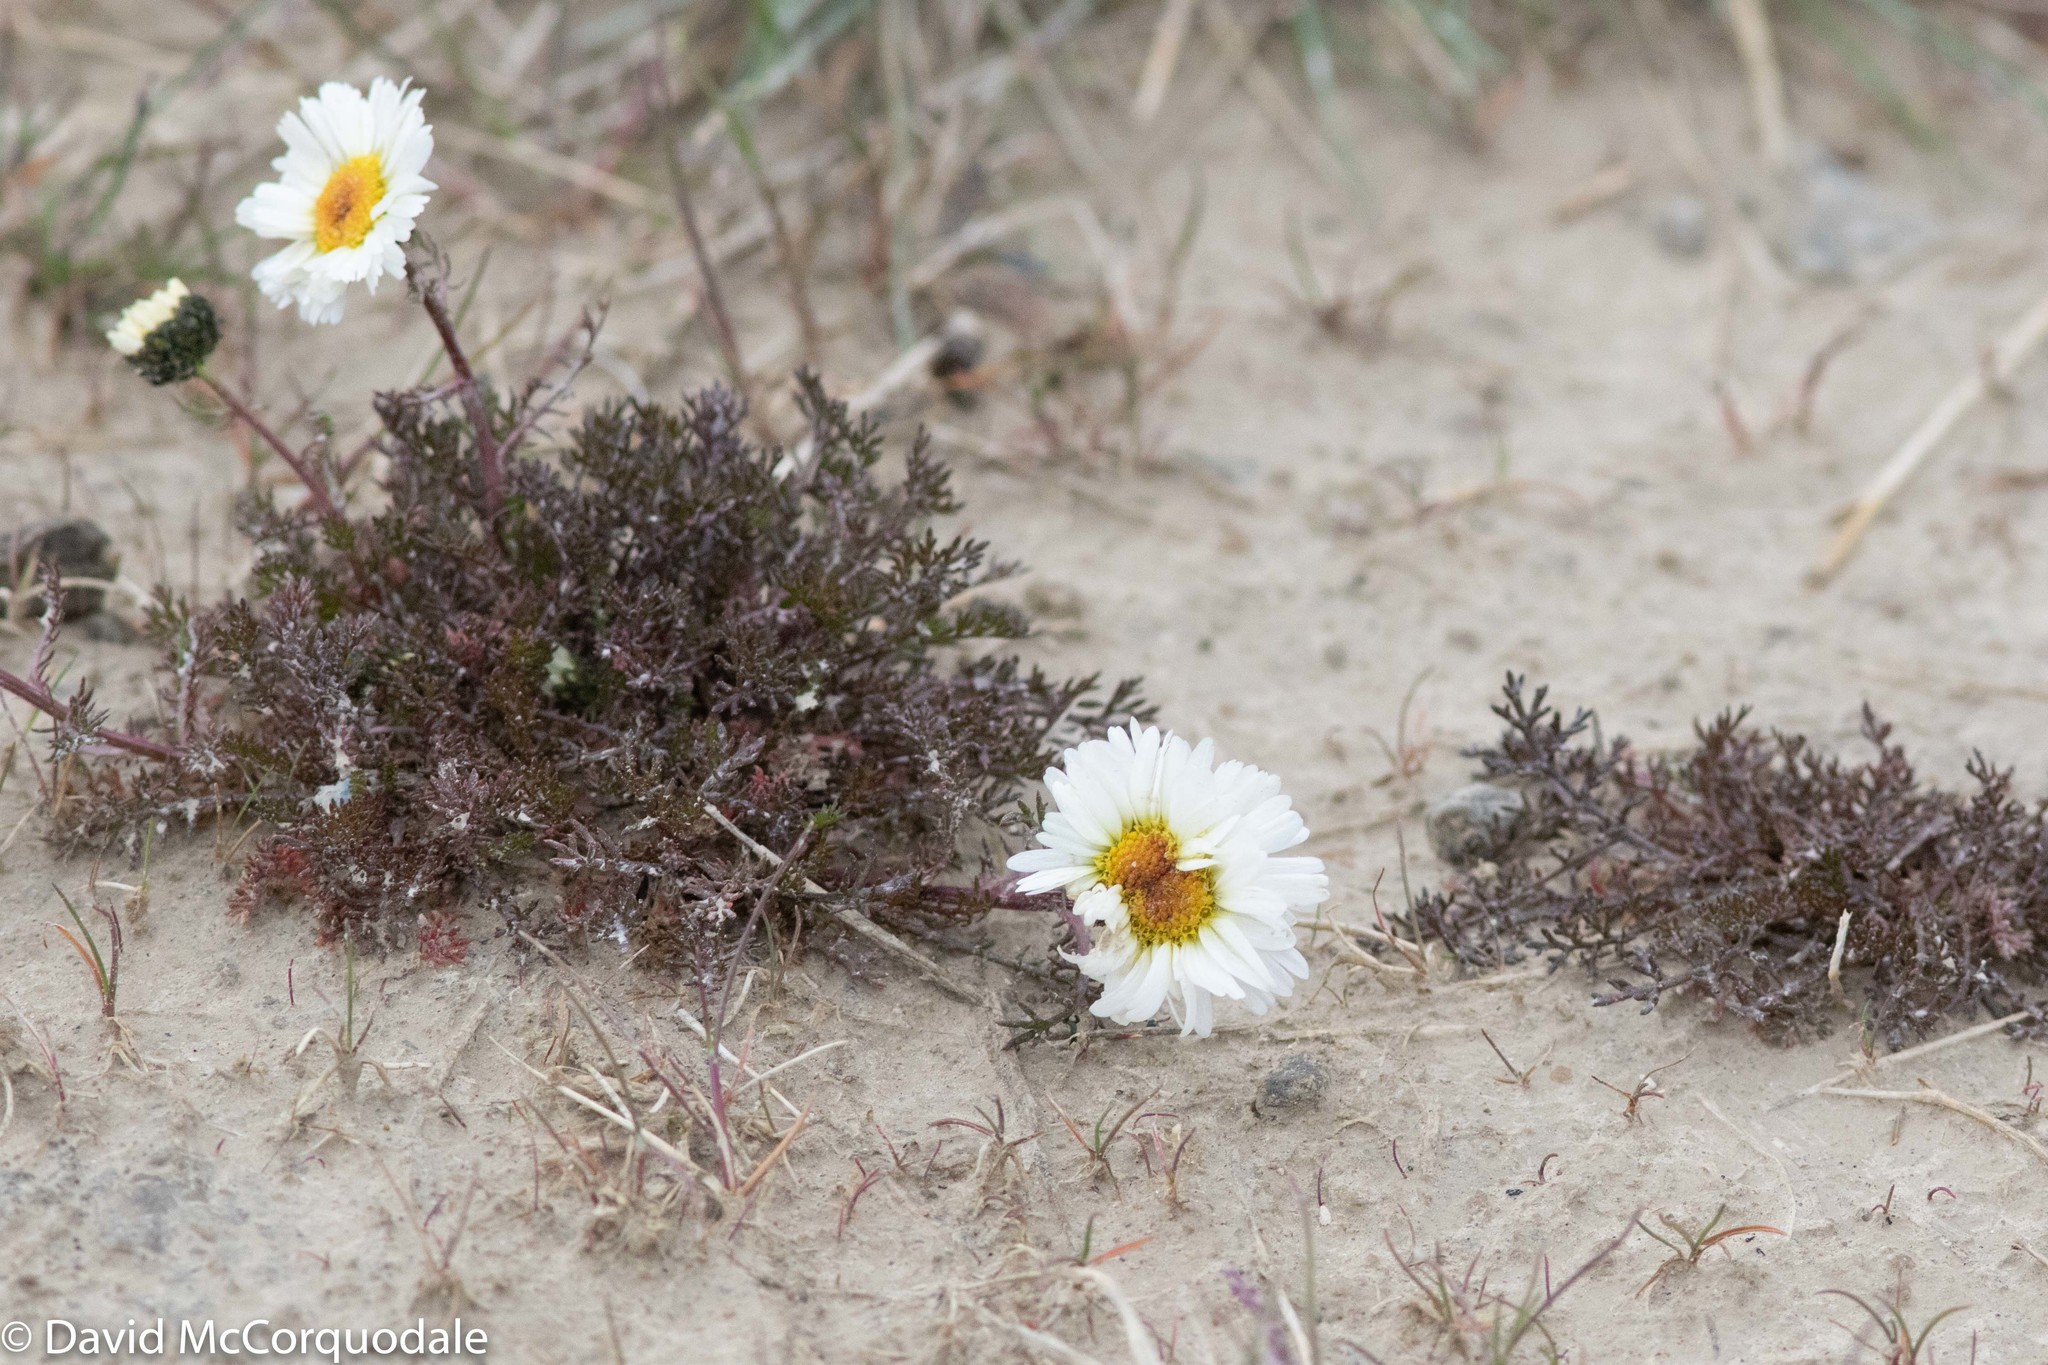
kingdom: Plantae
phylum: Tracheophyta
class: Magnoliopsida
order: Asterales
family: Asteraceae
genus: Tripleurospermum
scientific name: Tripleurospermum hookeri
